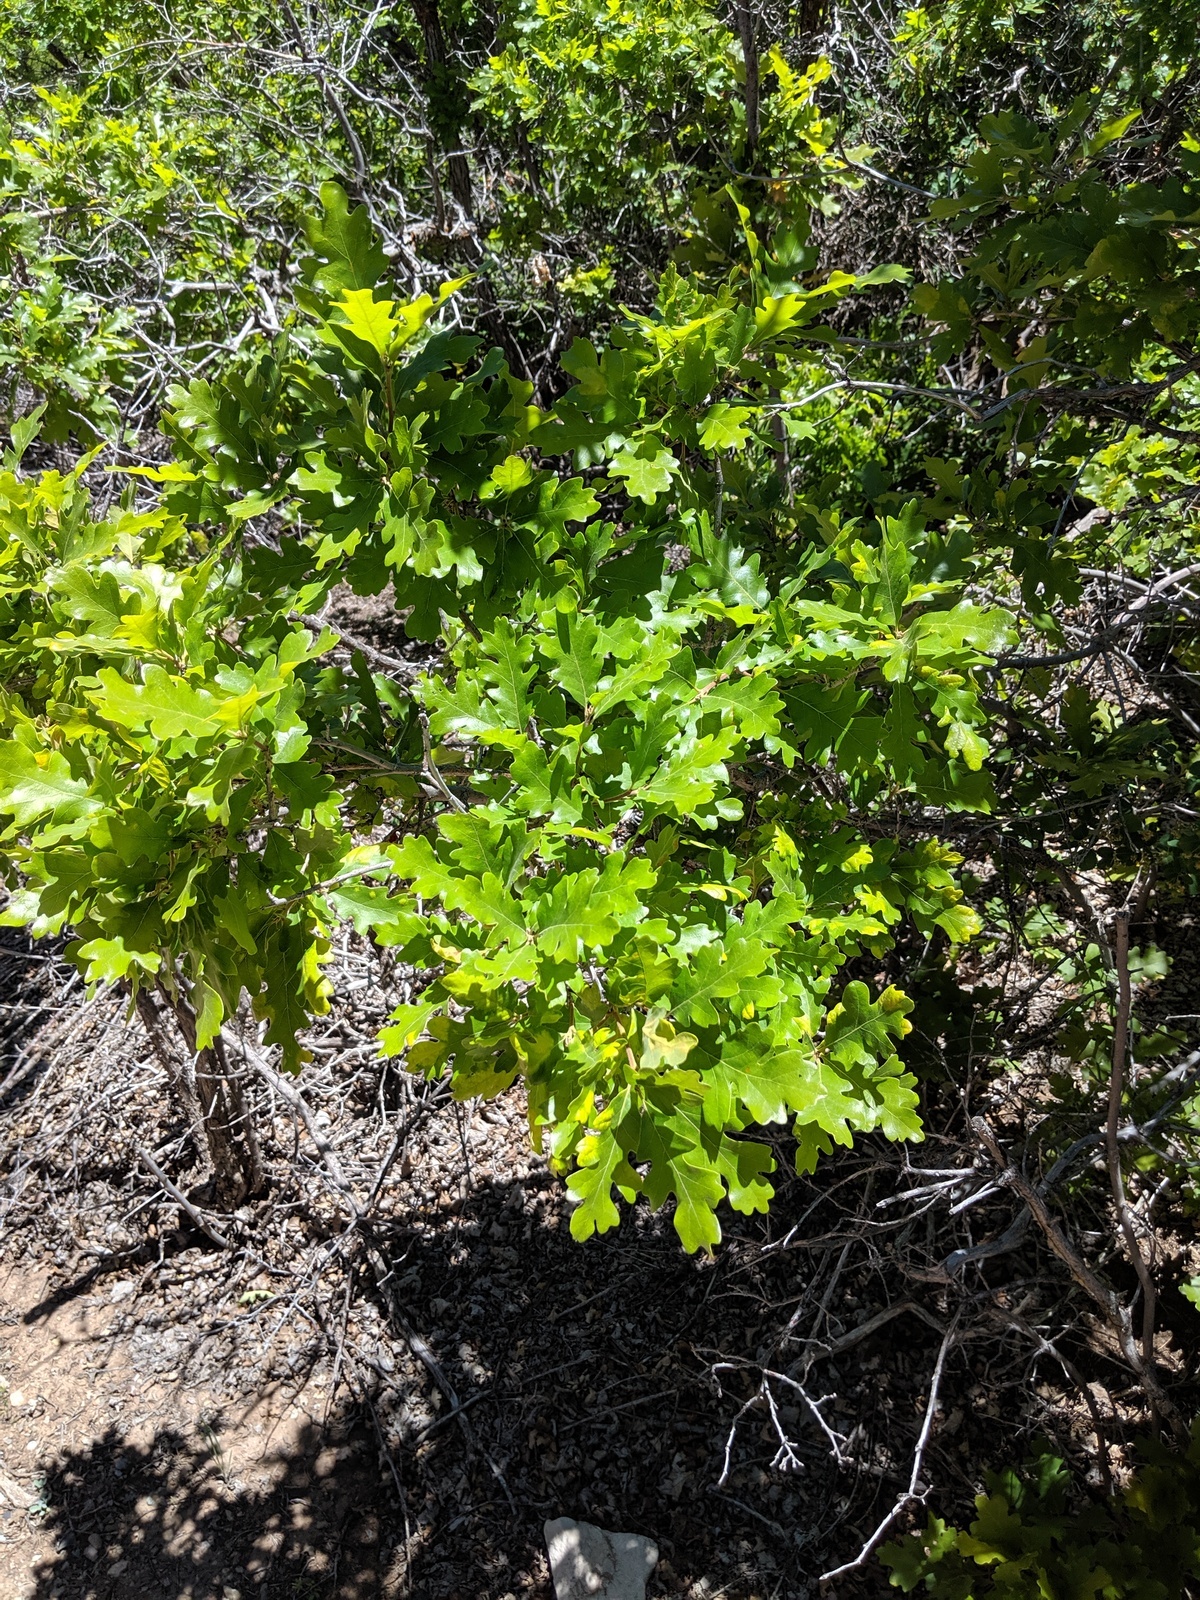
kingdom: Plantae
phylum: Tracheophyta
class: Magnoliopsida
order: Fagales
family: Fagaceae
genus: Quercus
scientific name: Quercus gambelii
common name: Gambel oak
